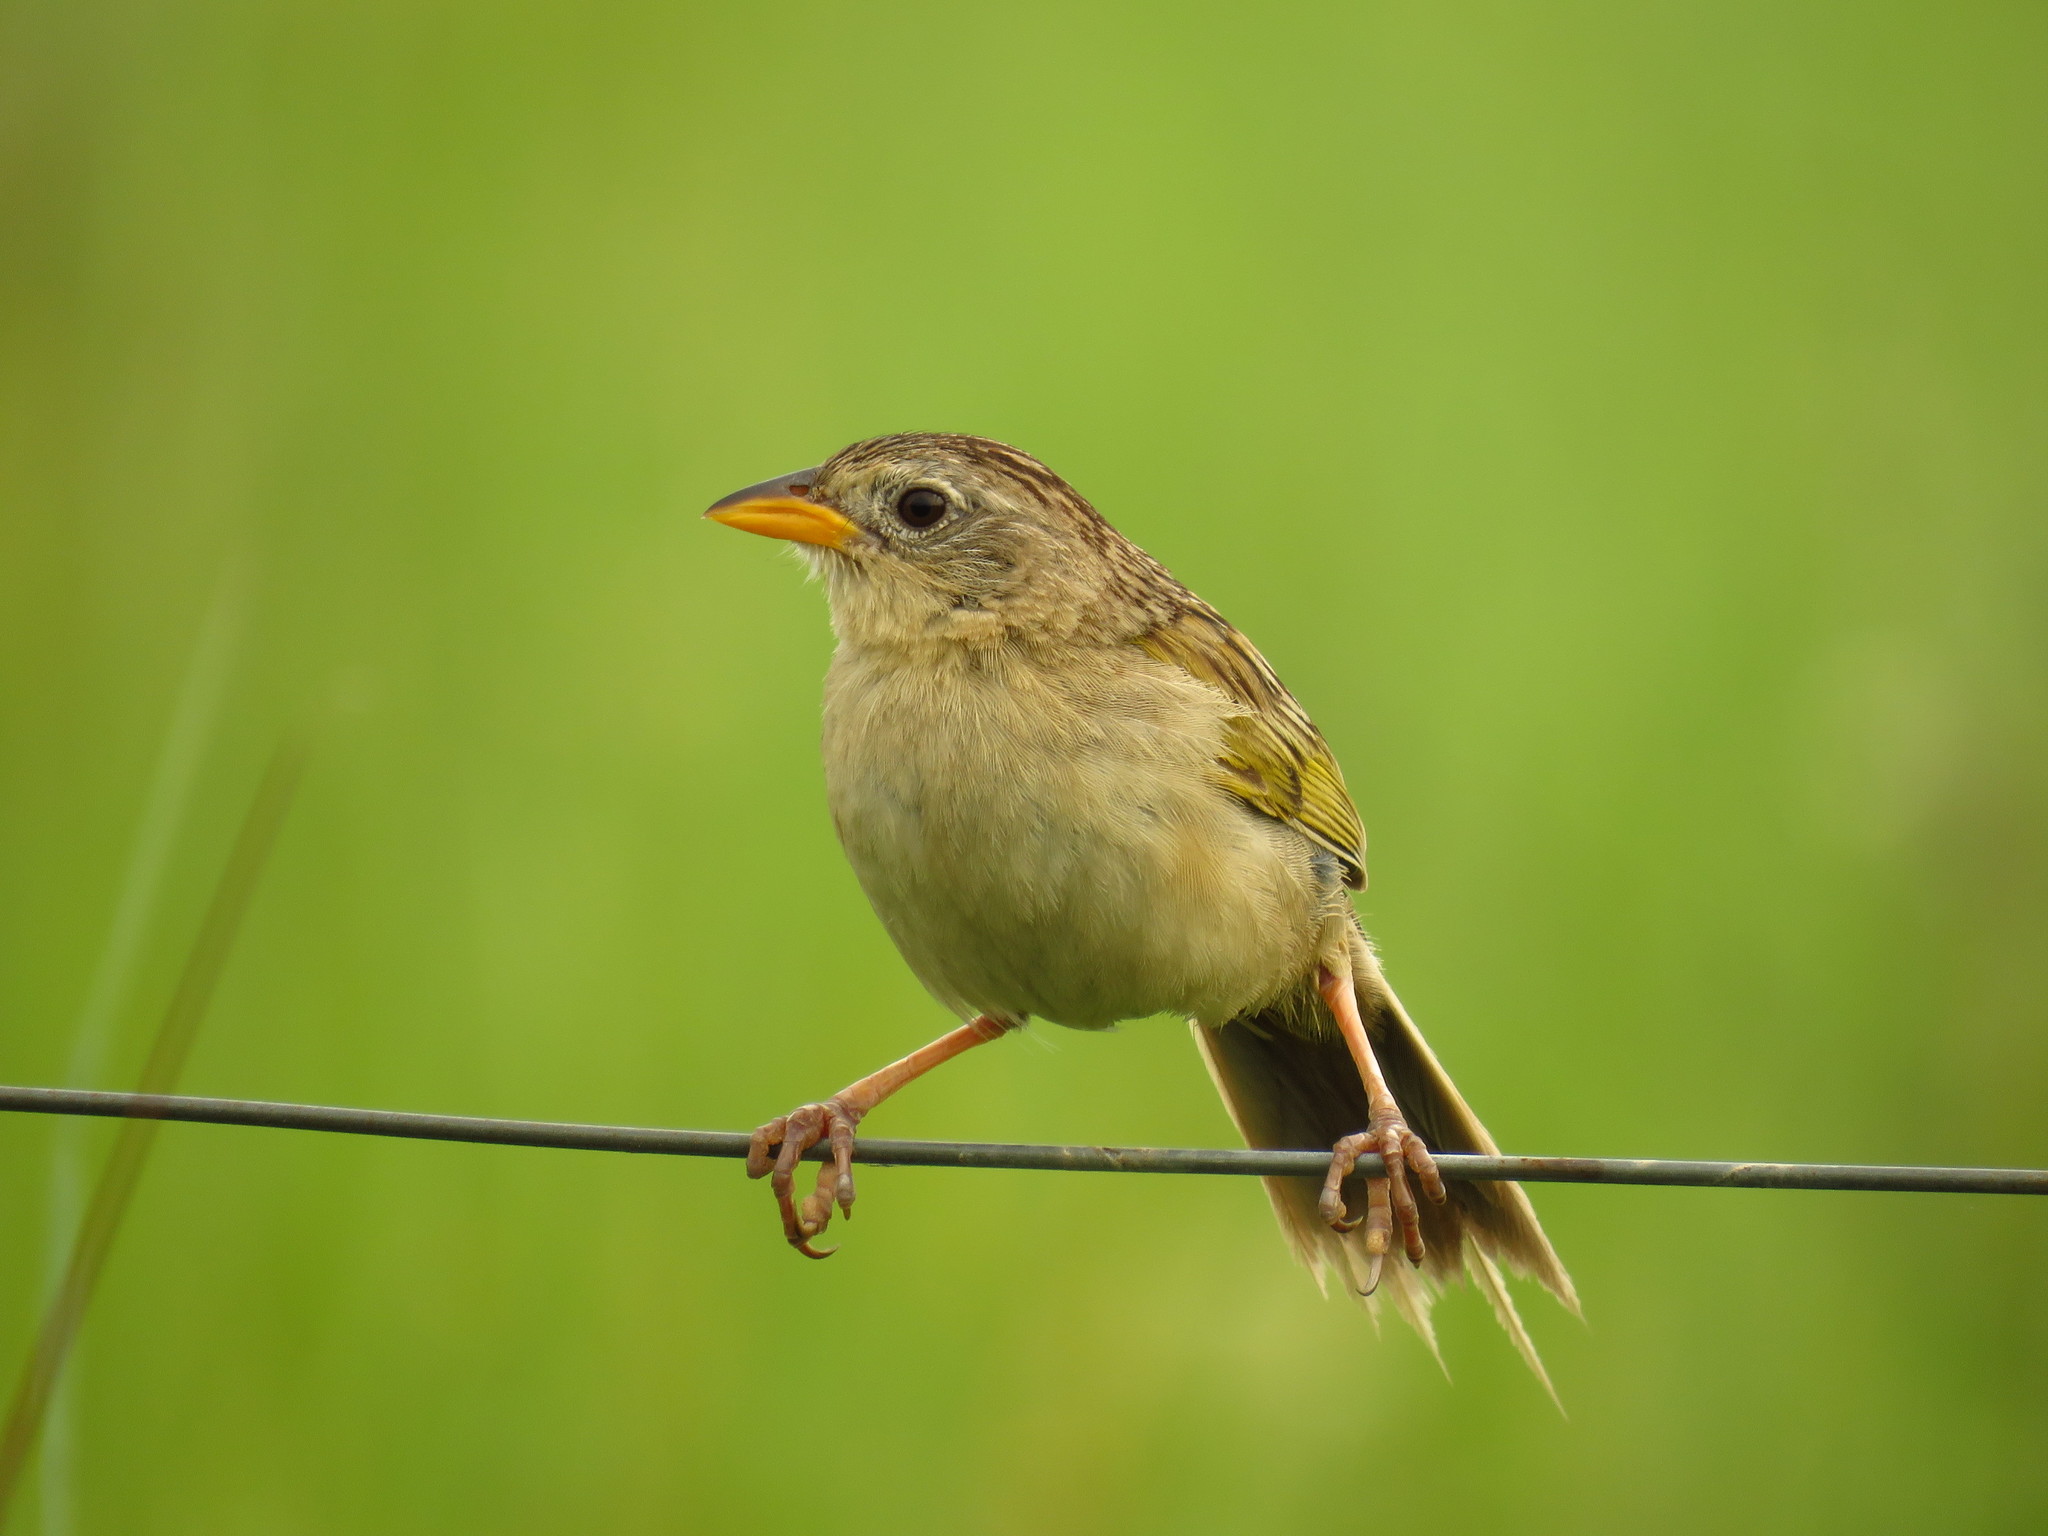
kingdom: Animalia
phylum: Chordata
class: Aves
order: Passeriformes
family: Thraupidae
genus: Emberizoides
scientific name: Emberizoides herbicola
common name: Wedge-tailed grass-finch
